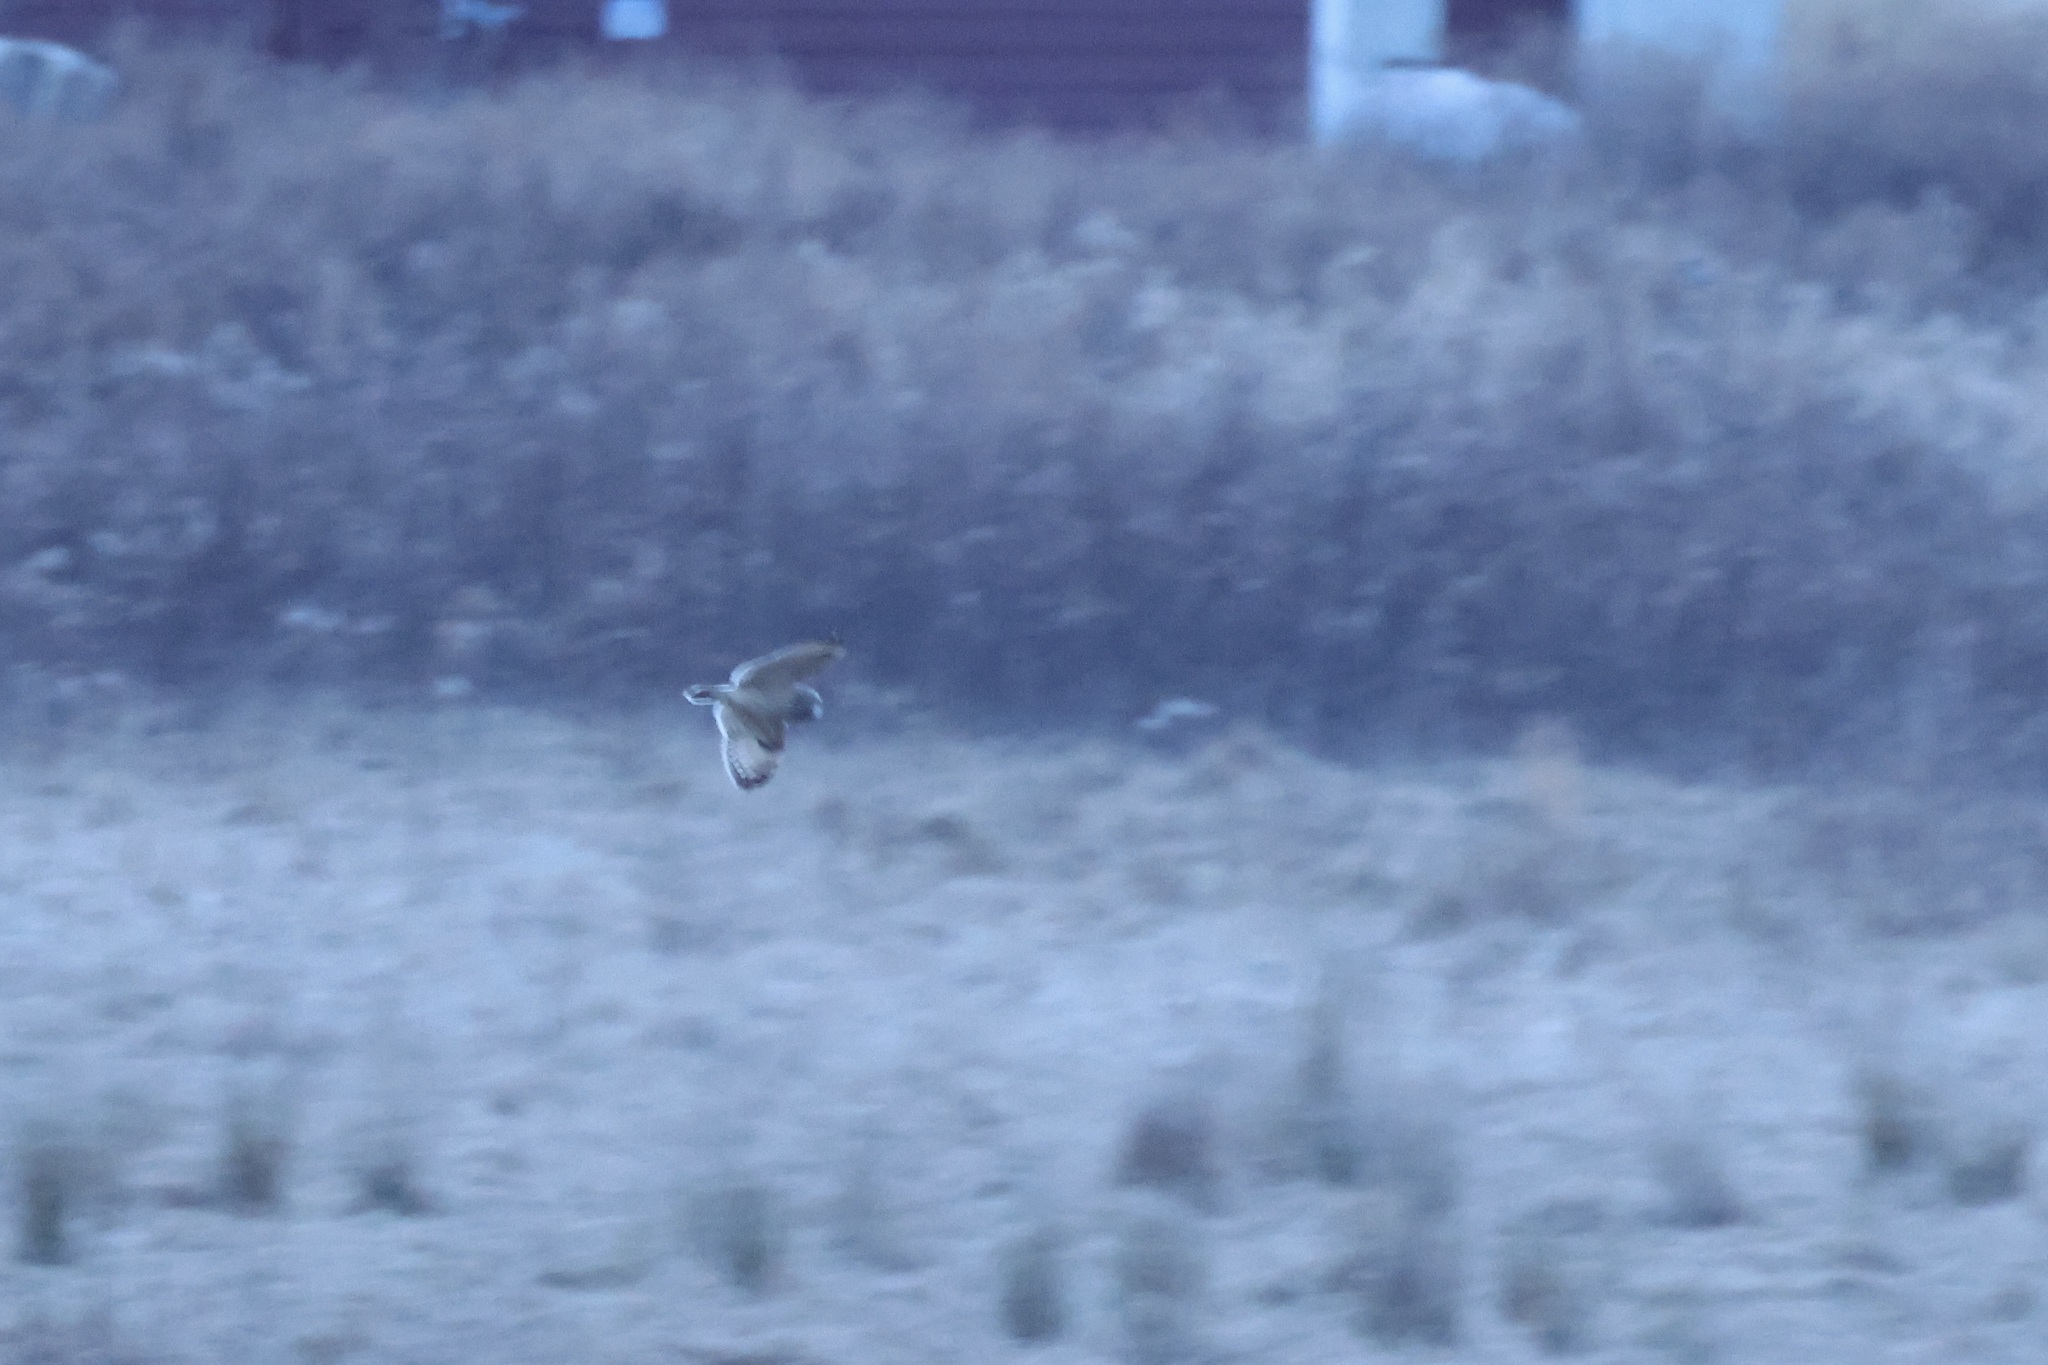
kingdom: Animalia
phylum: Chordata
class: Aves
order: Strigiformes
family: Strigidae
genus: Asio
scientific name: Asio flammeus
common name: Short-eared owl
